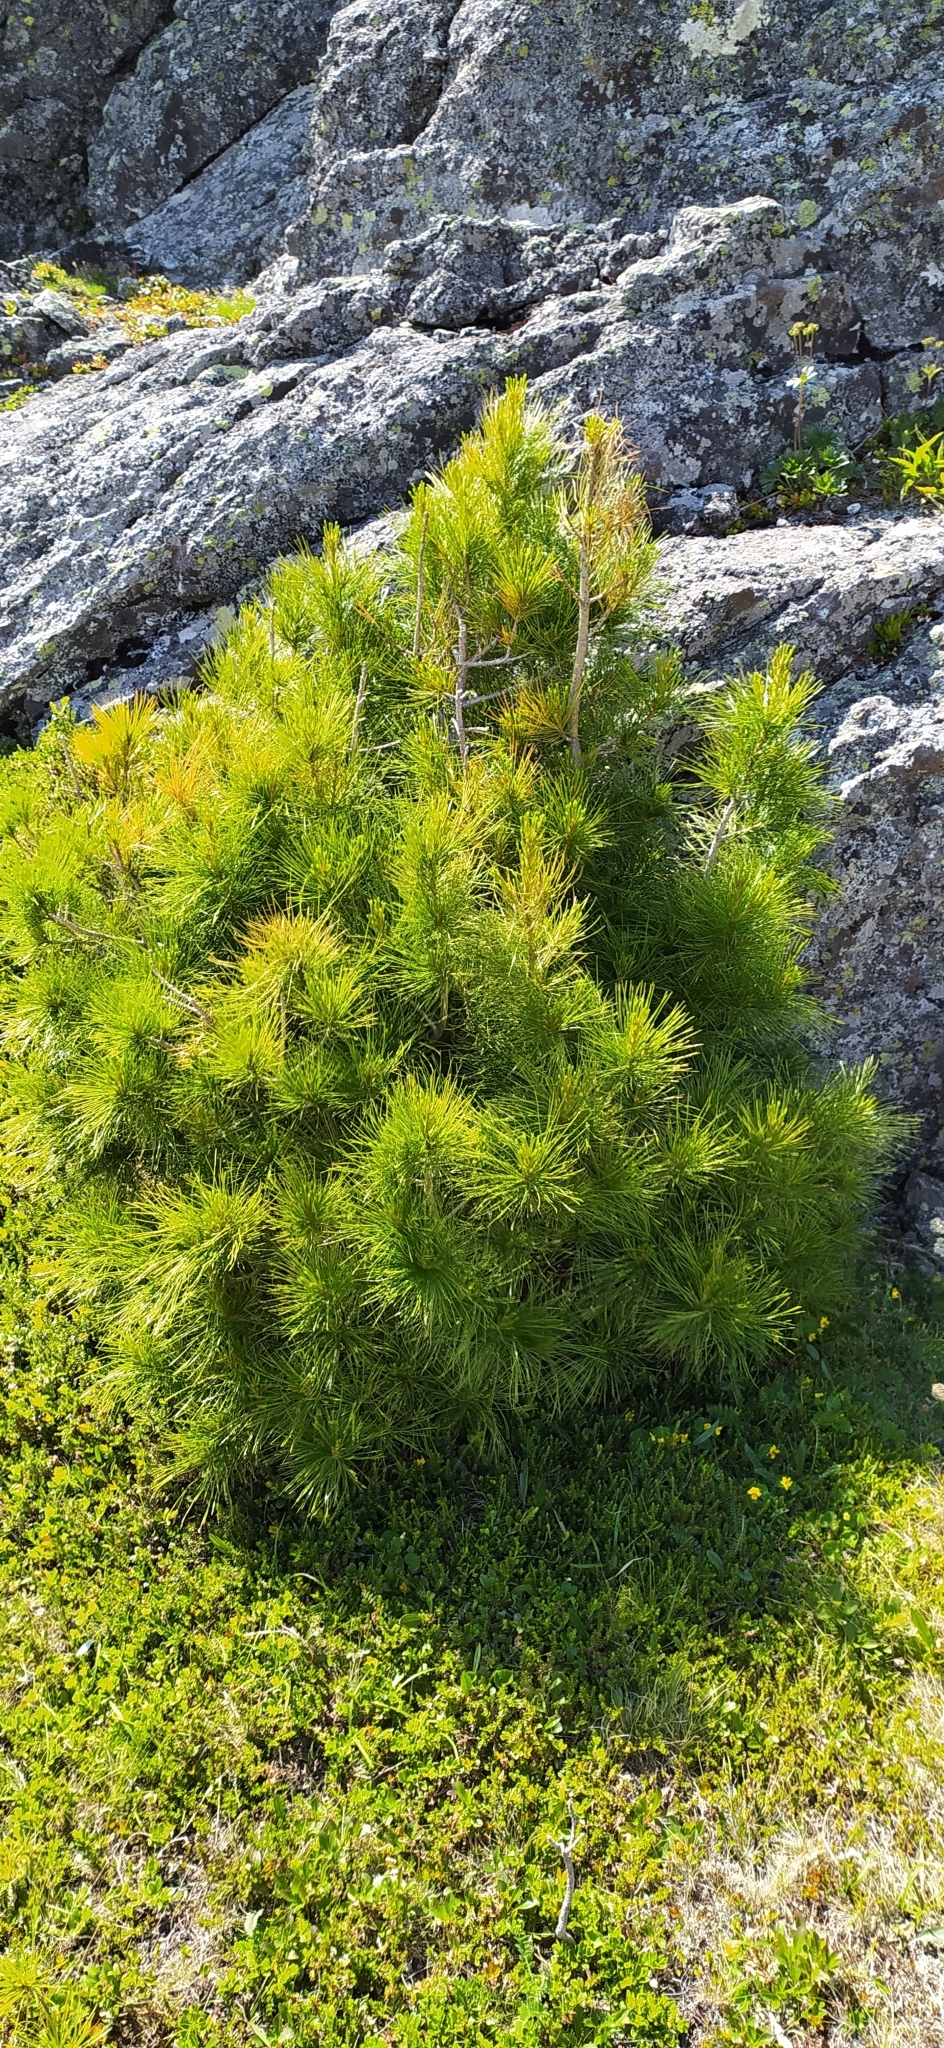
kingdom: Plantae
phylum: Tracheophyta
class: Pinopsida
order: Pinales
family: Pinaceae
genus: Pinus
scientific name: Pinus sibirica
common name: Siberian pine
